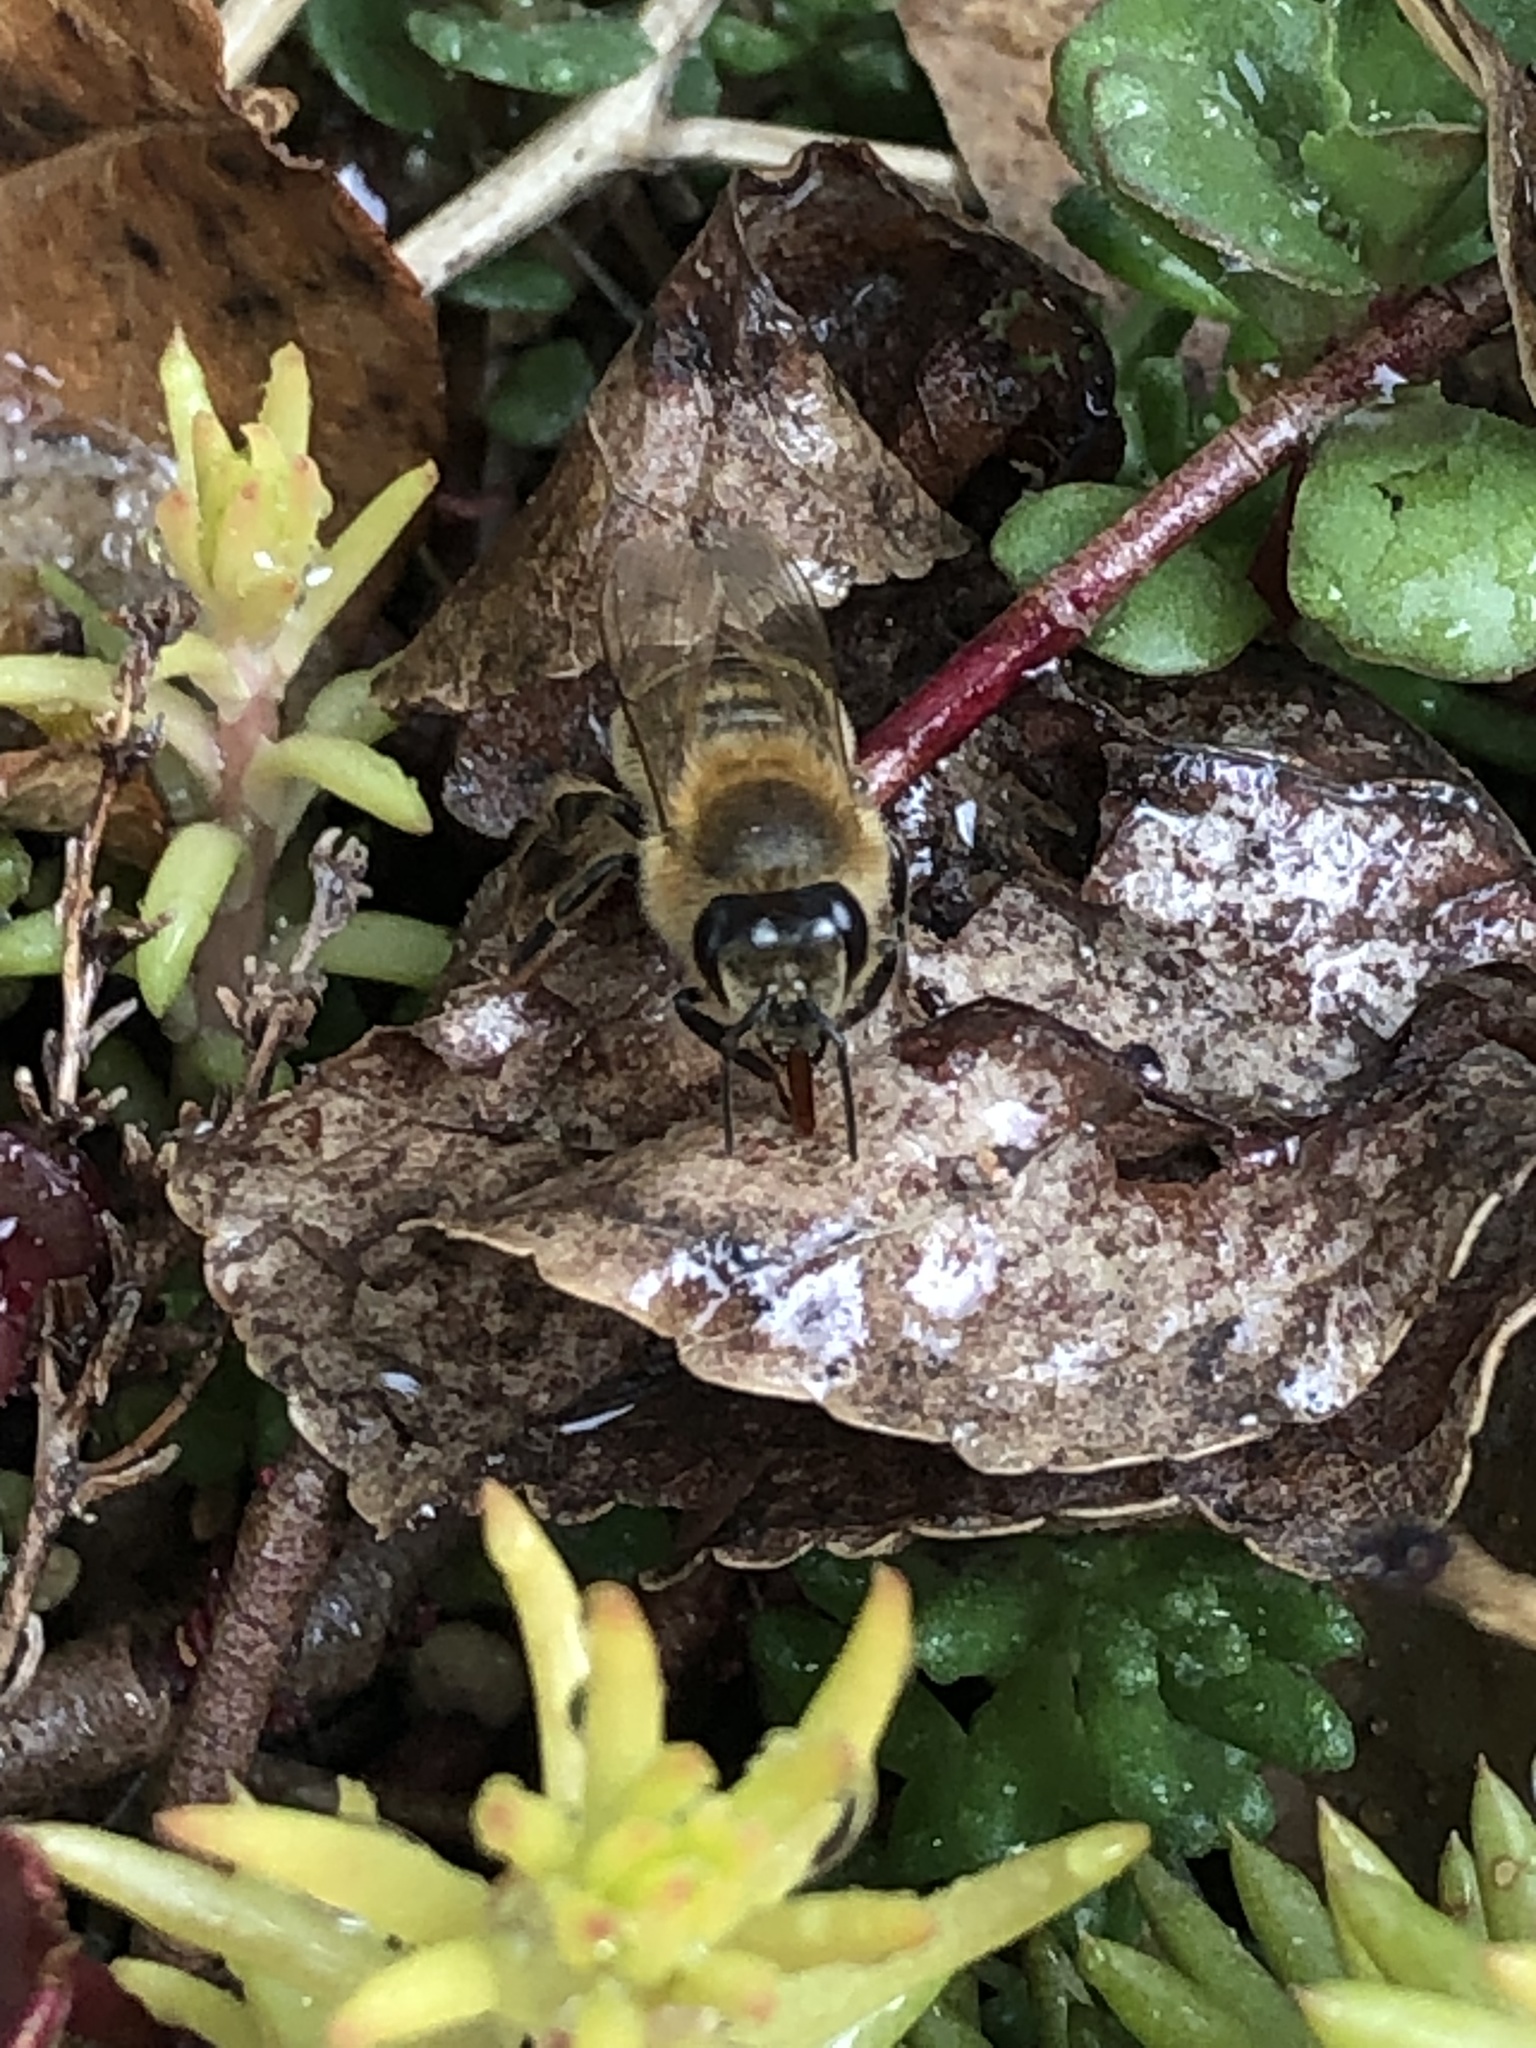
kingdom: Animalia
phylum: Arthropoda
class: Insecta
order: Hymenoptera
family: Apidae
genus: Apis
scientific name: Apis mellifera
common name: Honey bee
